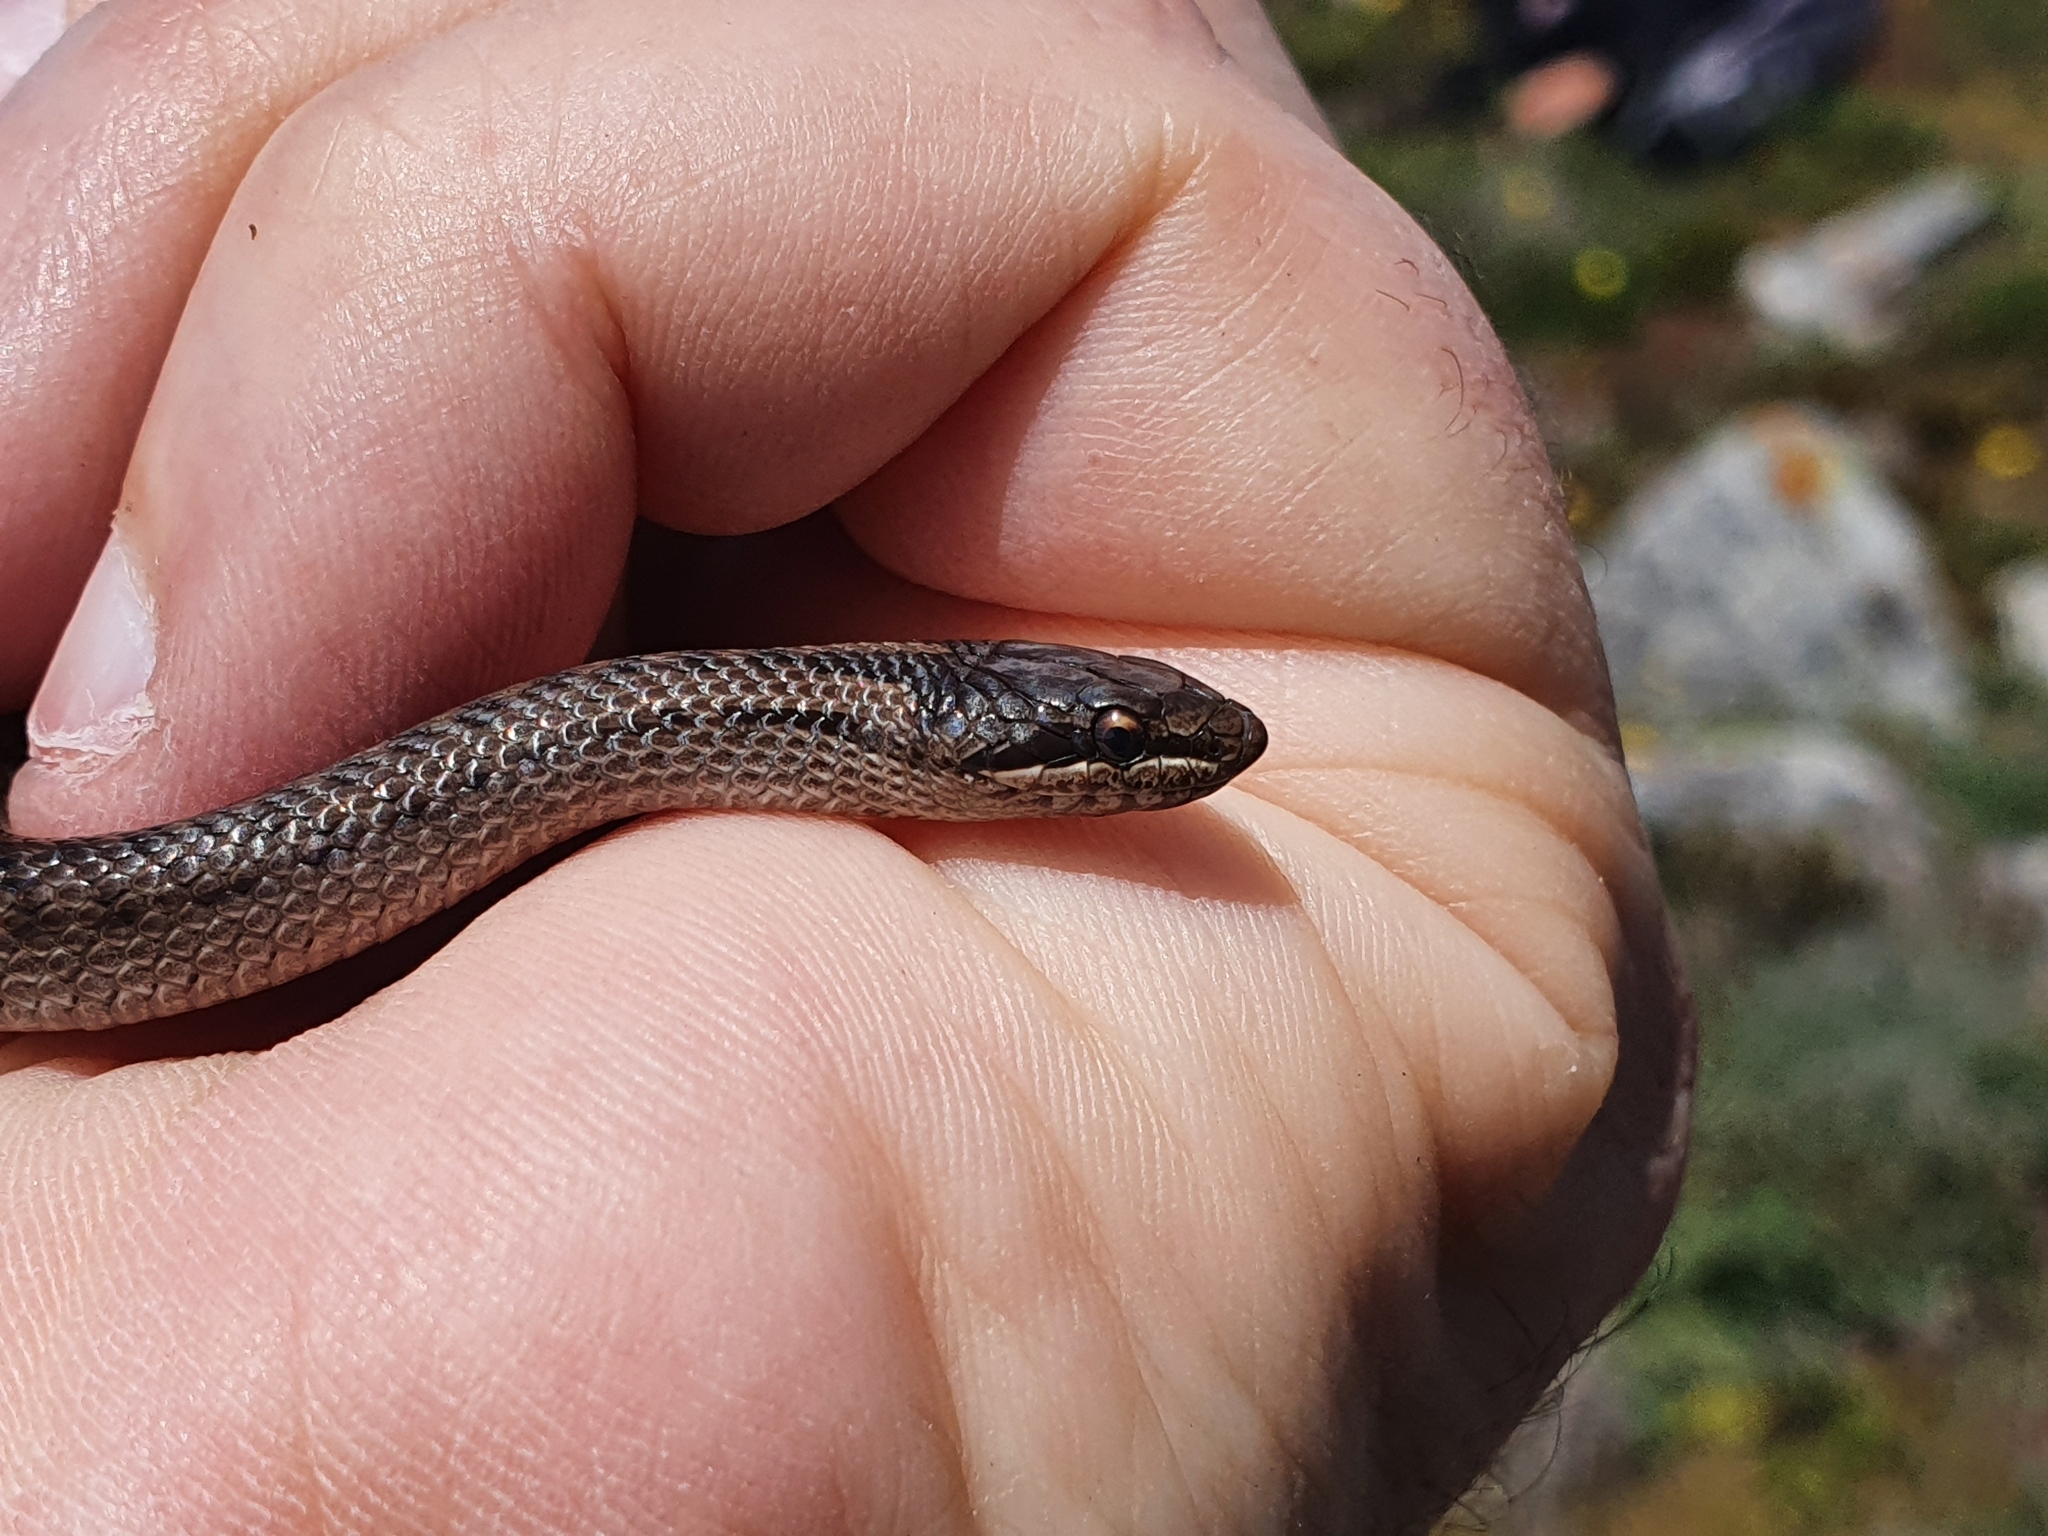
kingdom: Animalia
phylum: Chordata
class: Squamata
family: Colubridae
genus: Coronella
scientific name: Coronella austriaca
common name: Smooth snake
